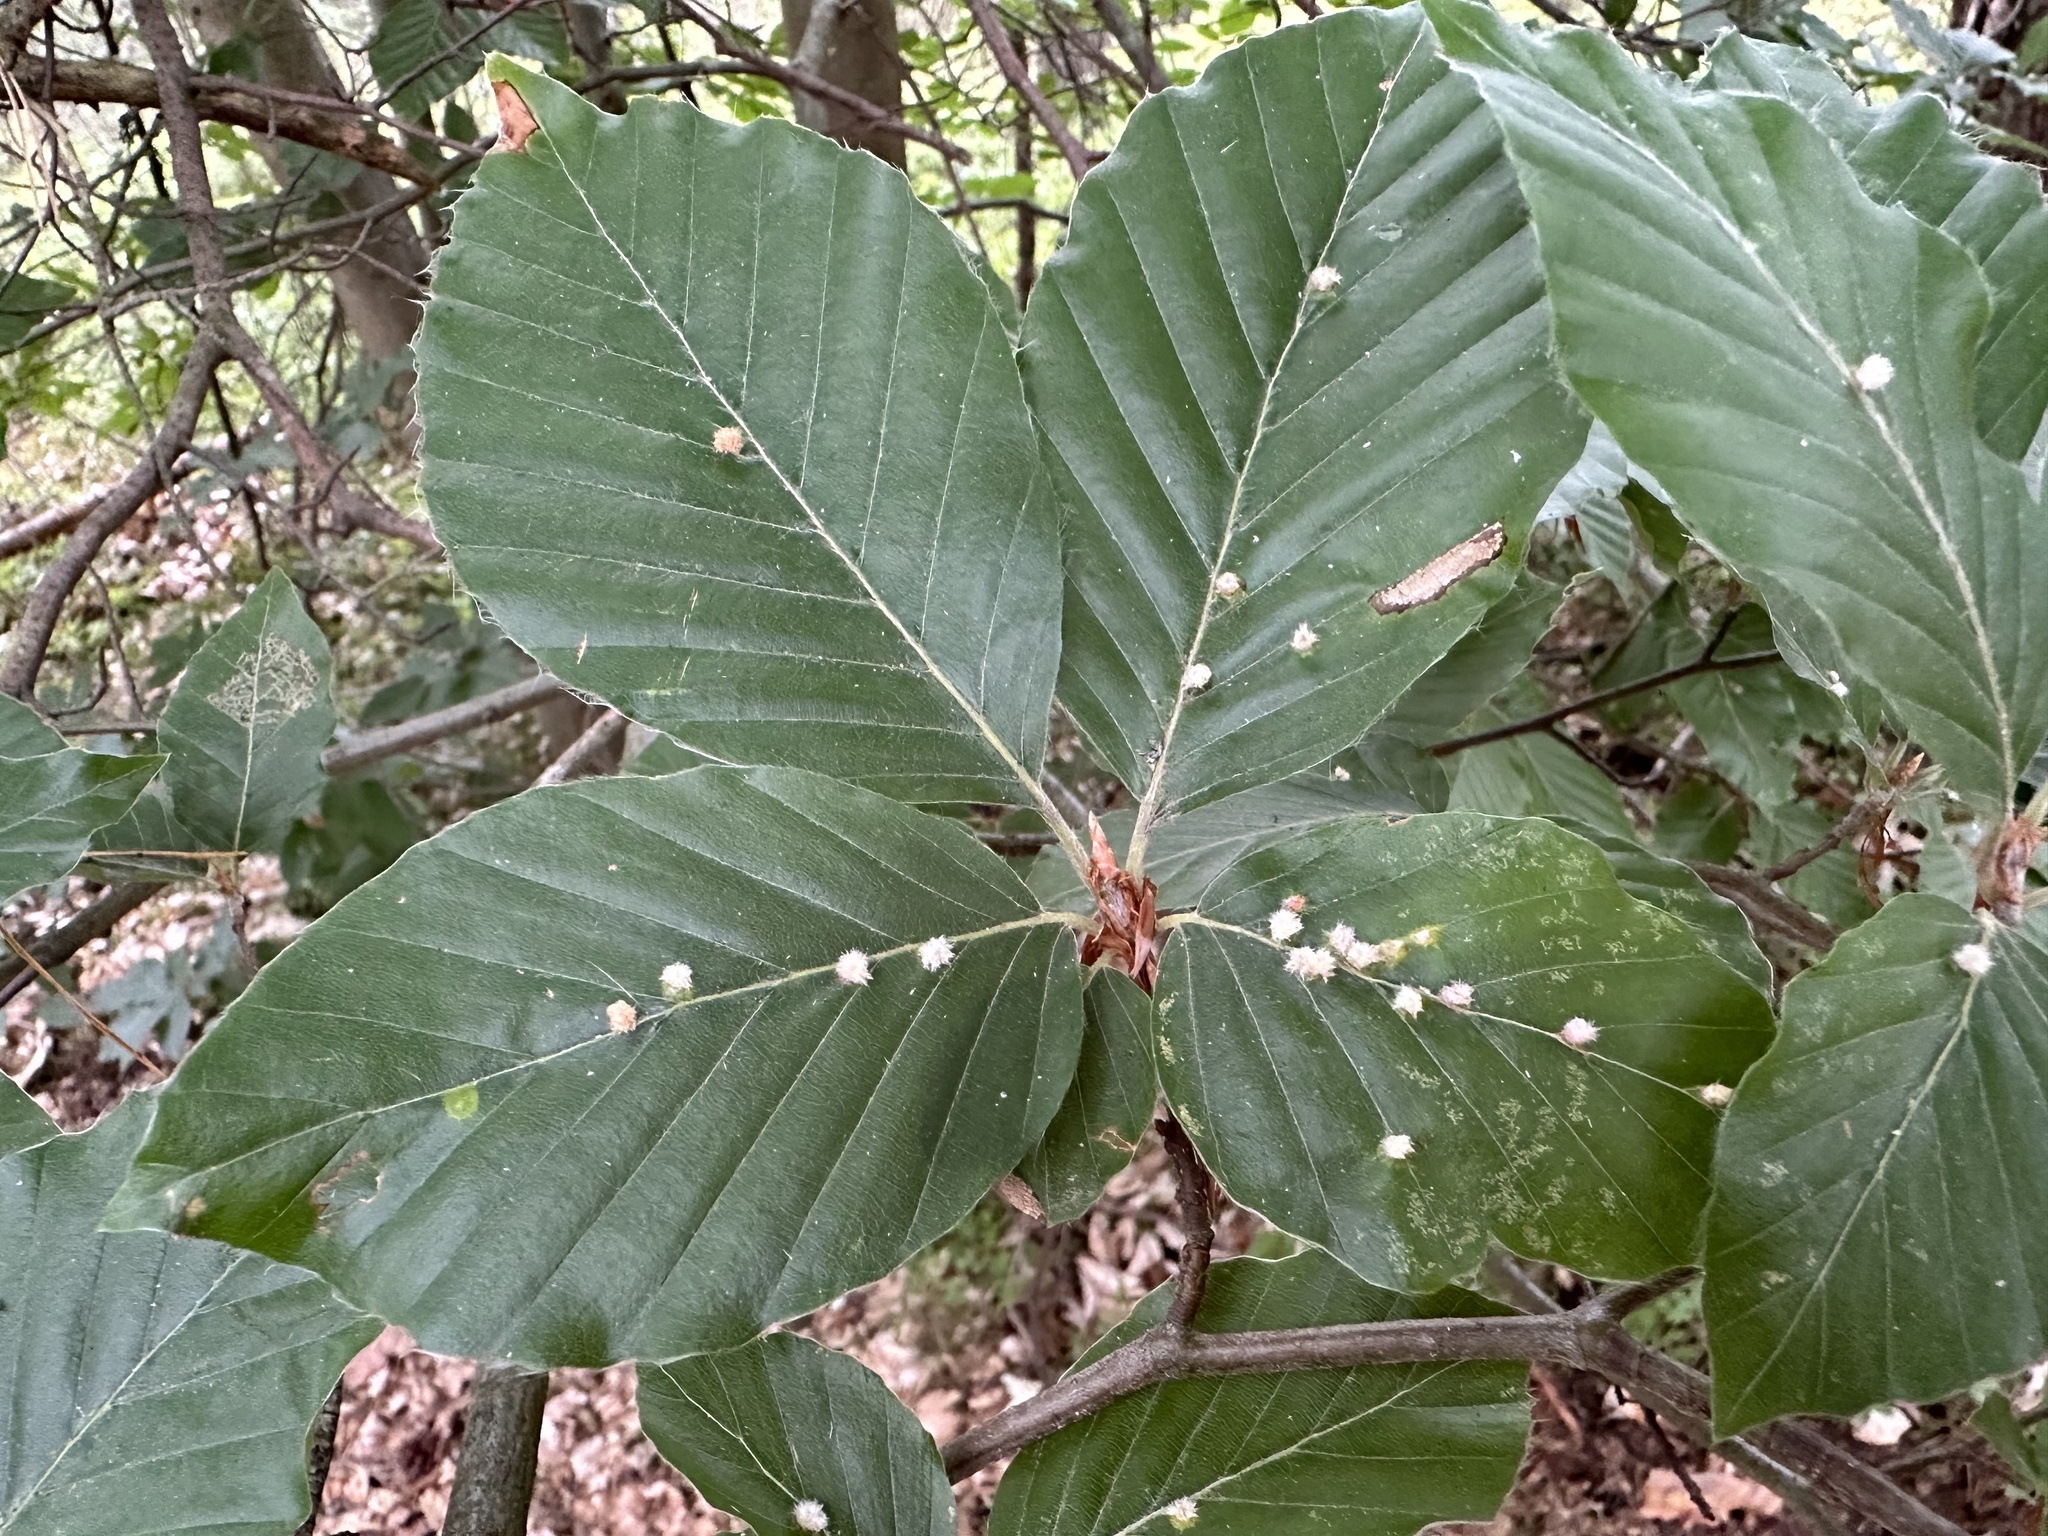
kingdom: Animalia
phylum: Arthropoda
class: Insecta
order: Diptera
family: Cecidomyiidae
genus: Hartigiola
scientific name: Hartigiola annulipes
